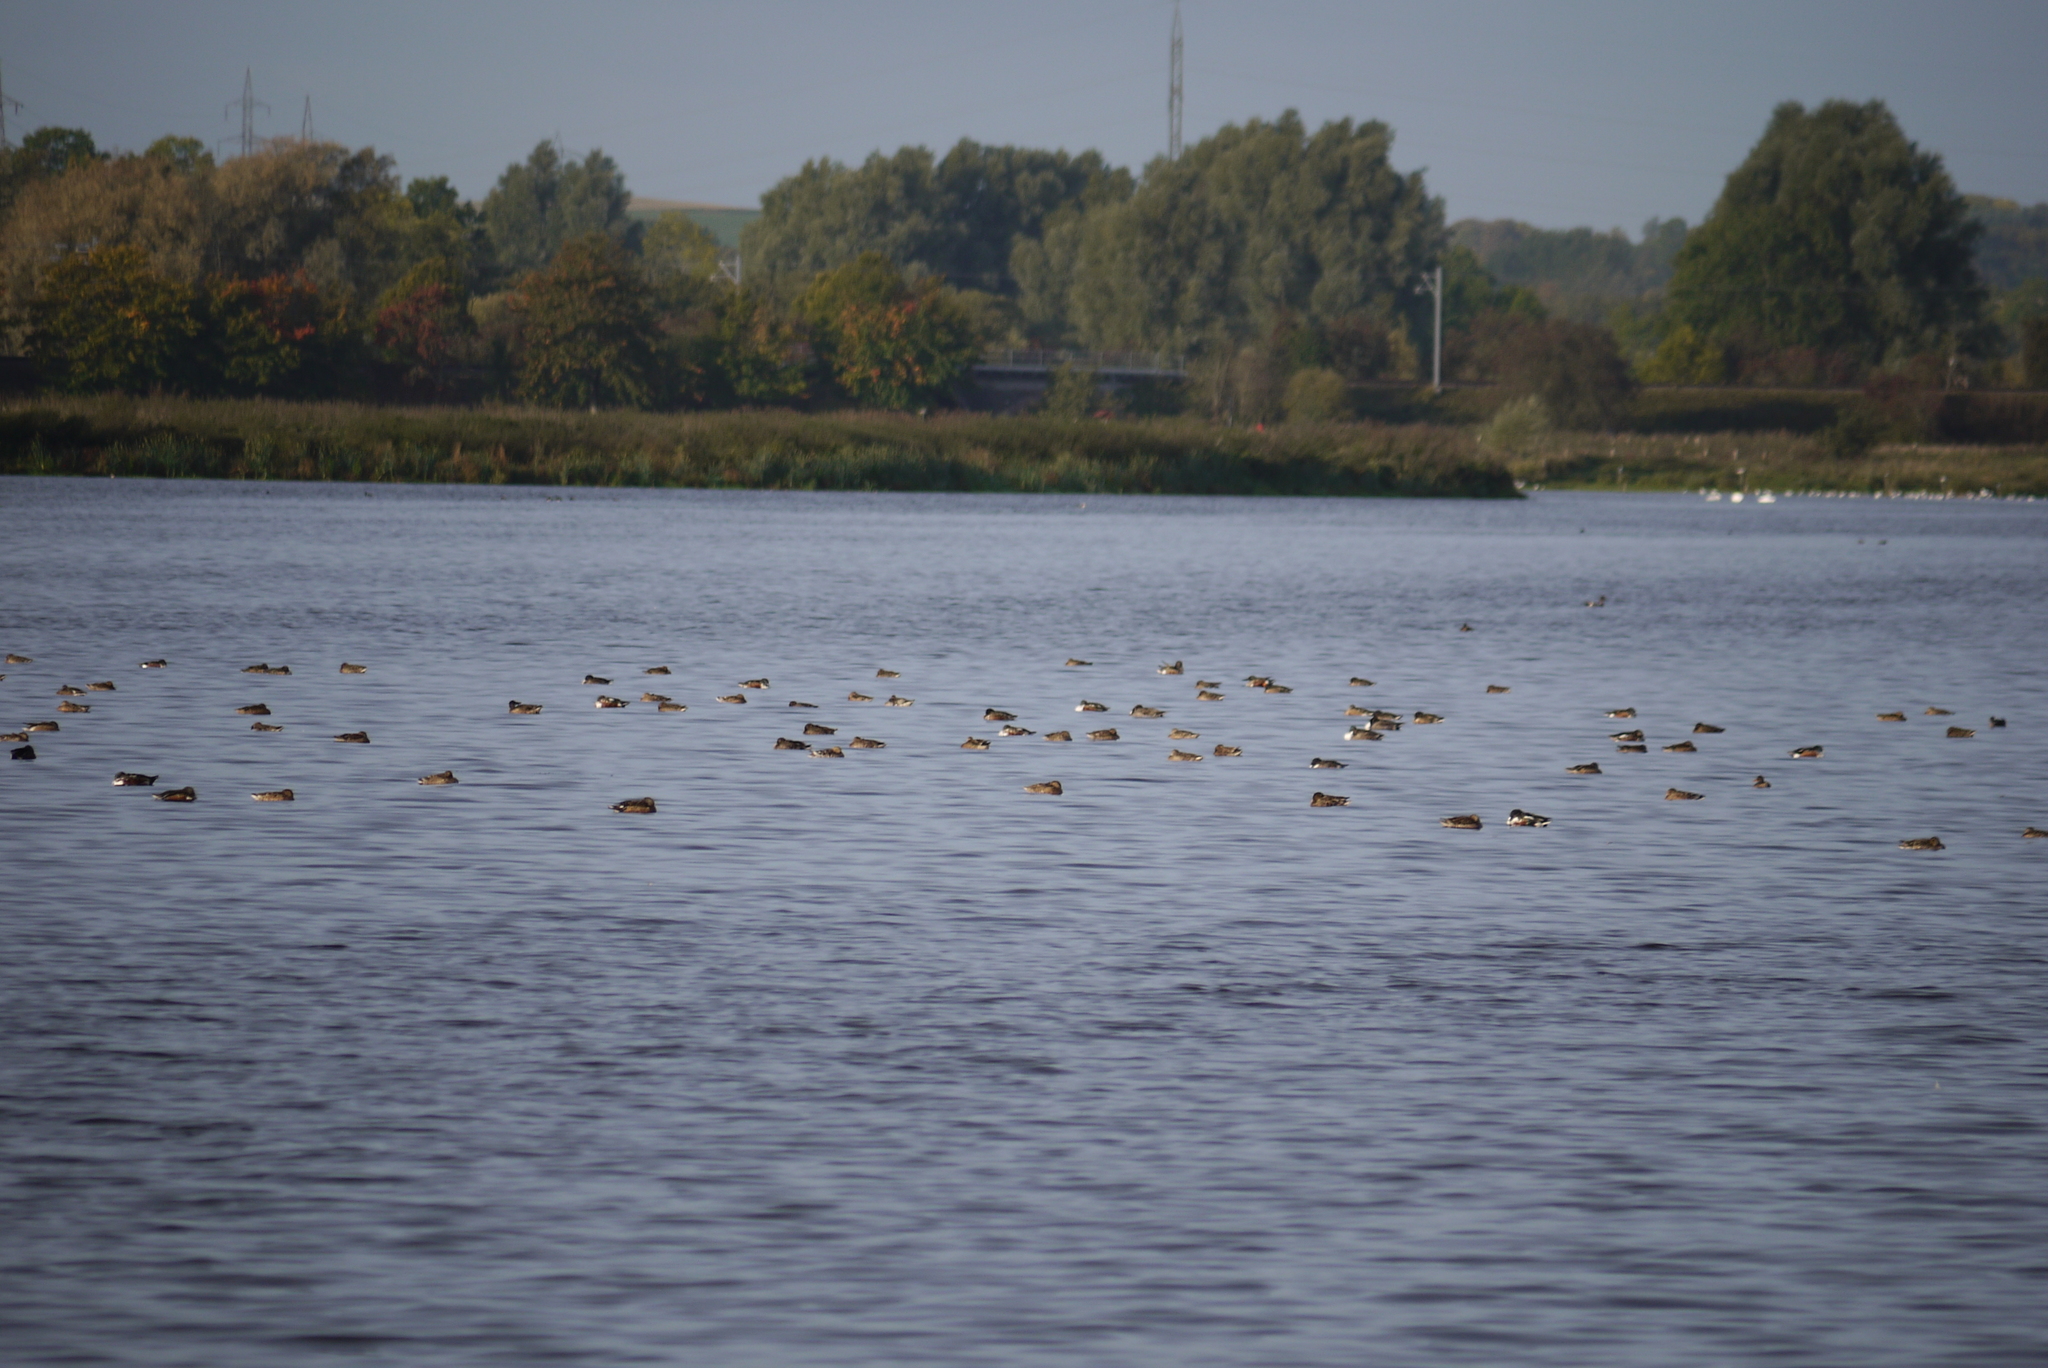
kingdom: Animalia
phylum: Chordata
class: Aves
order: Anseriformes
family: Anatidae
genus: Spatula
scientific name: Spatula clypeata
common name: Northern shoveler
